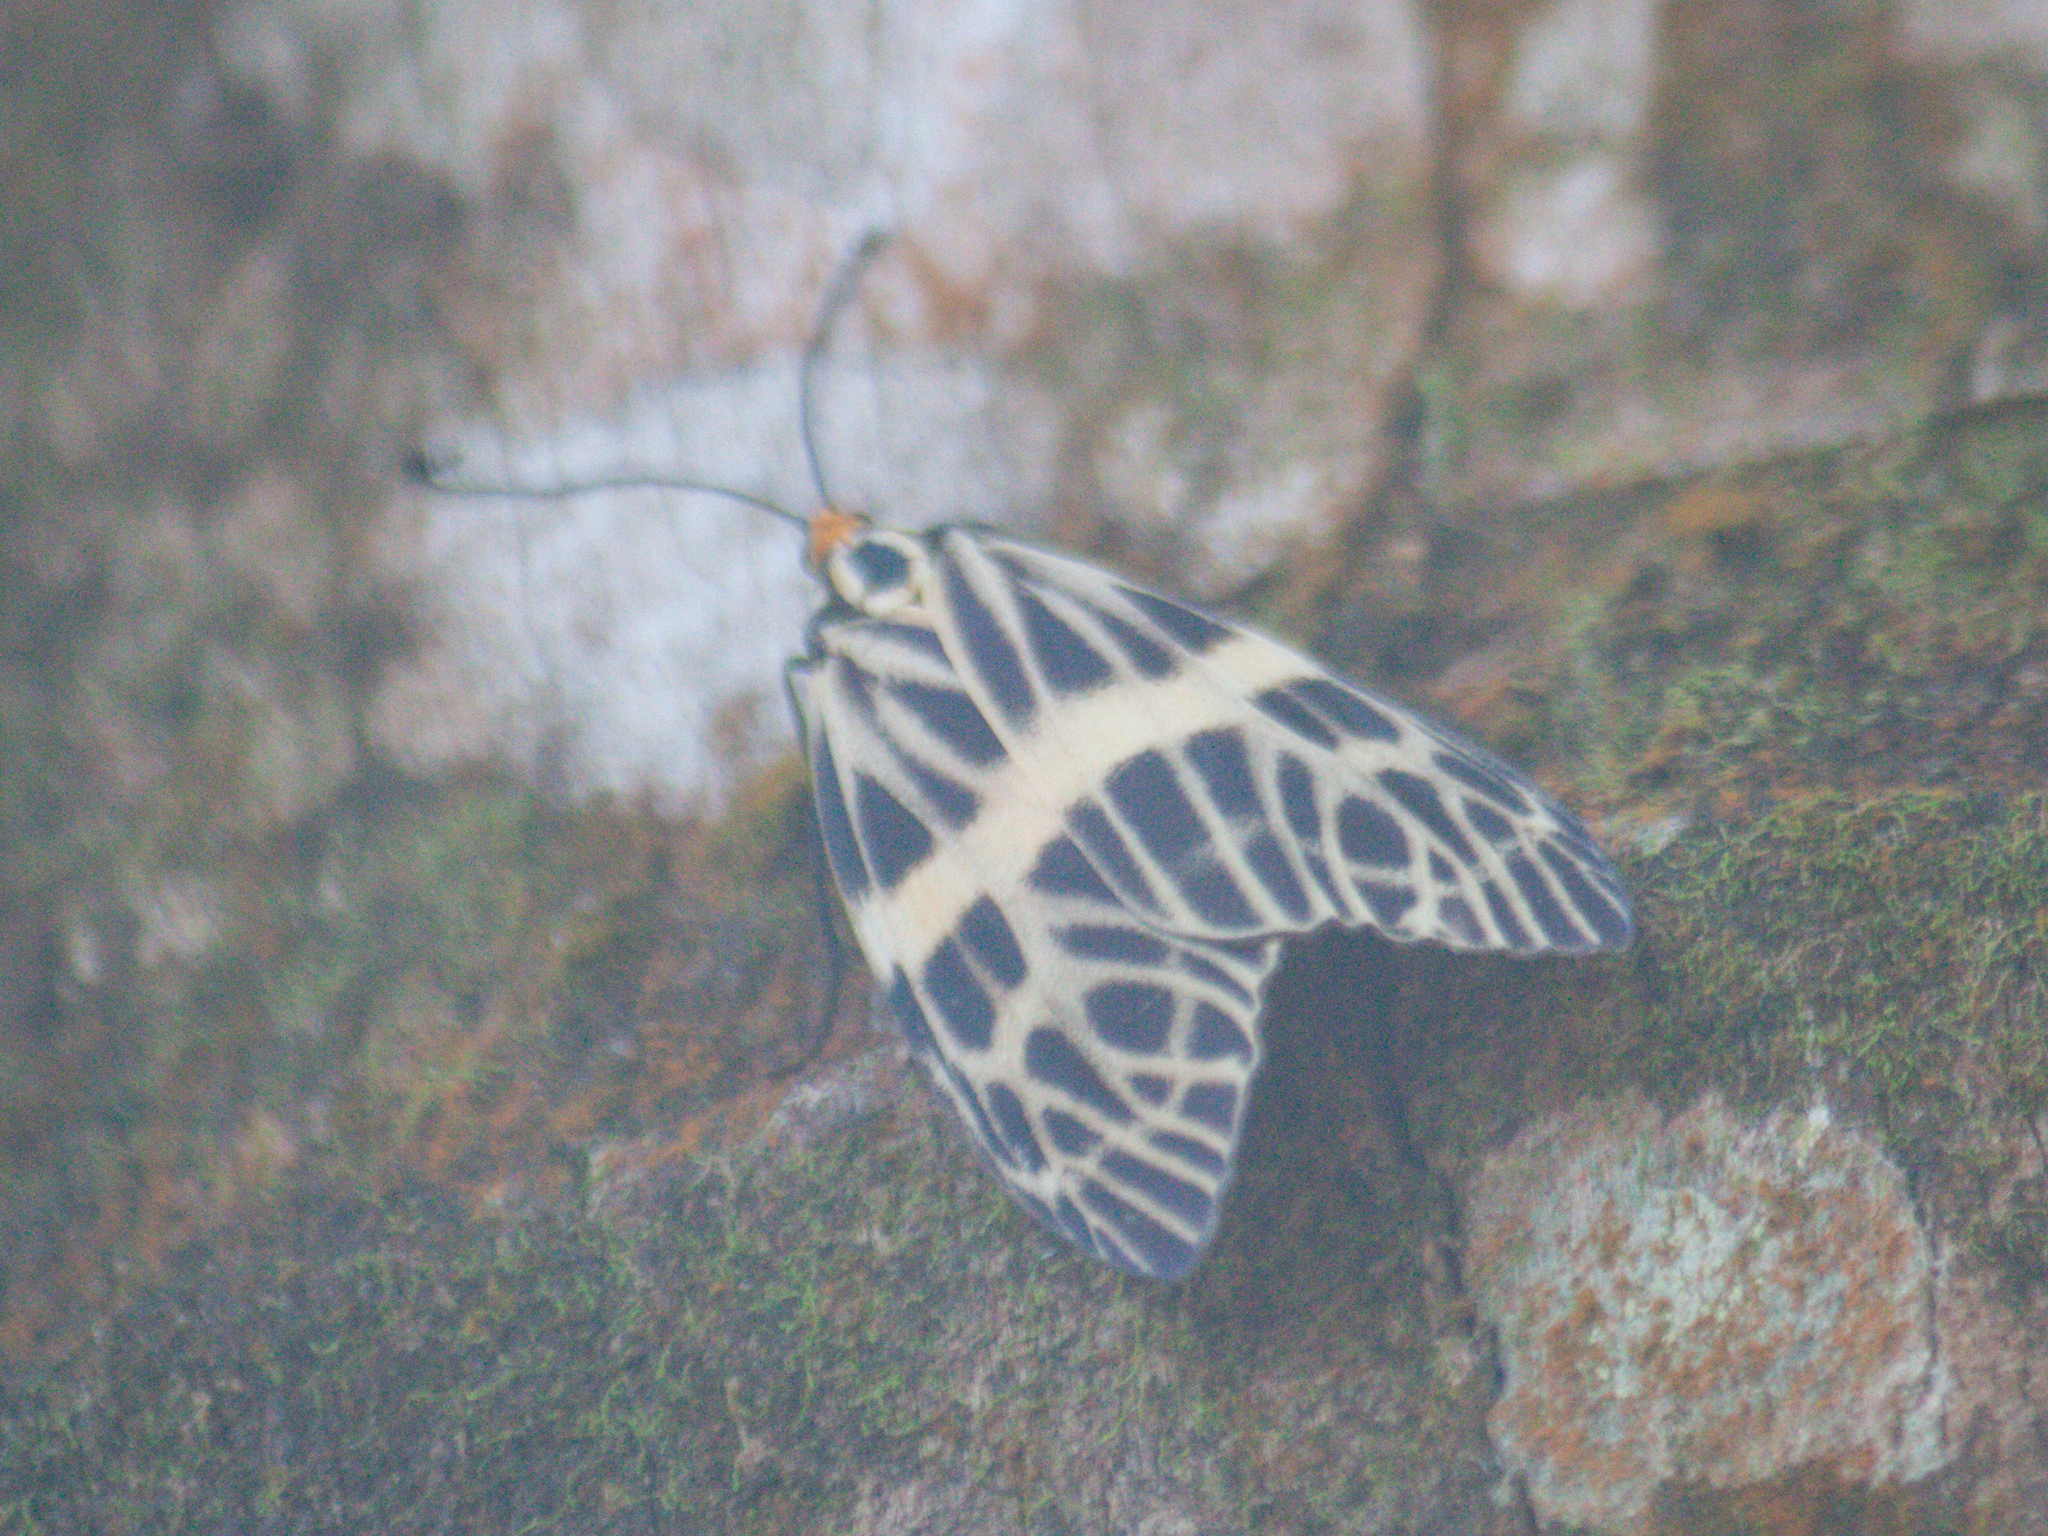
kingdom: Animalia
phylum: Arthropoda
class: Insecta
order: Lepidoptera
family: Zygaenidae
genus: Prosopandrophila
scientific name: Prosopandrophila distincta
